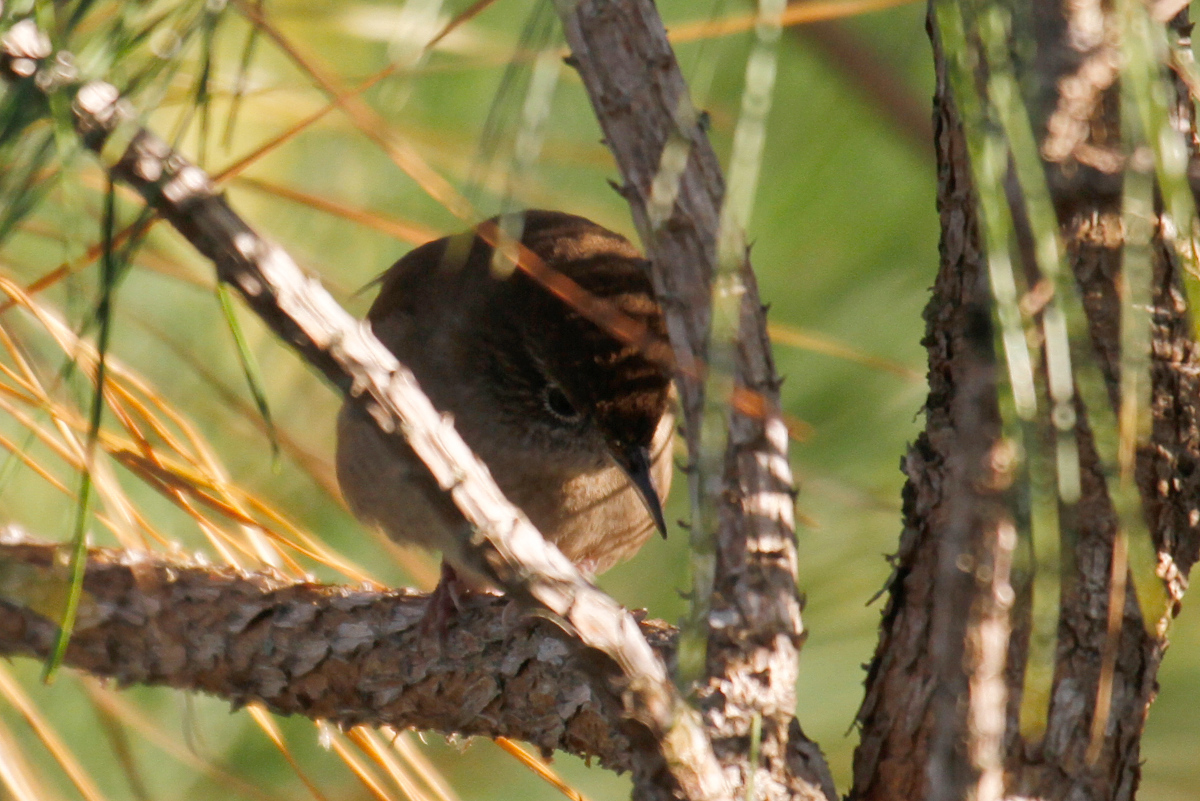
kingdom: Animalia
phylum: Chordata
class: Aves
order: Passeriformes
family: Troglodytidae
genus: Troglodytes
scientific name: Troglodytes aedon
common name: House wren
